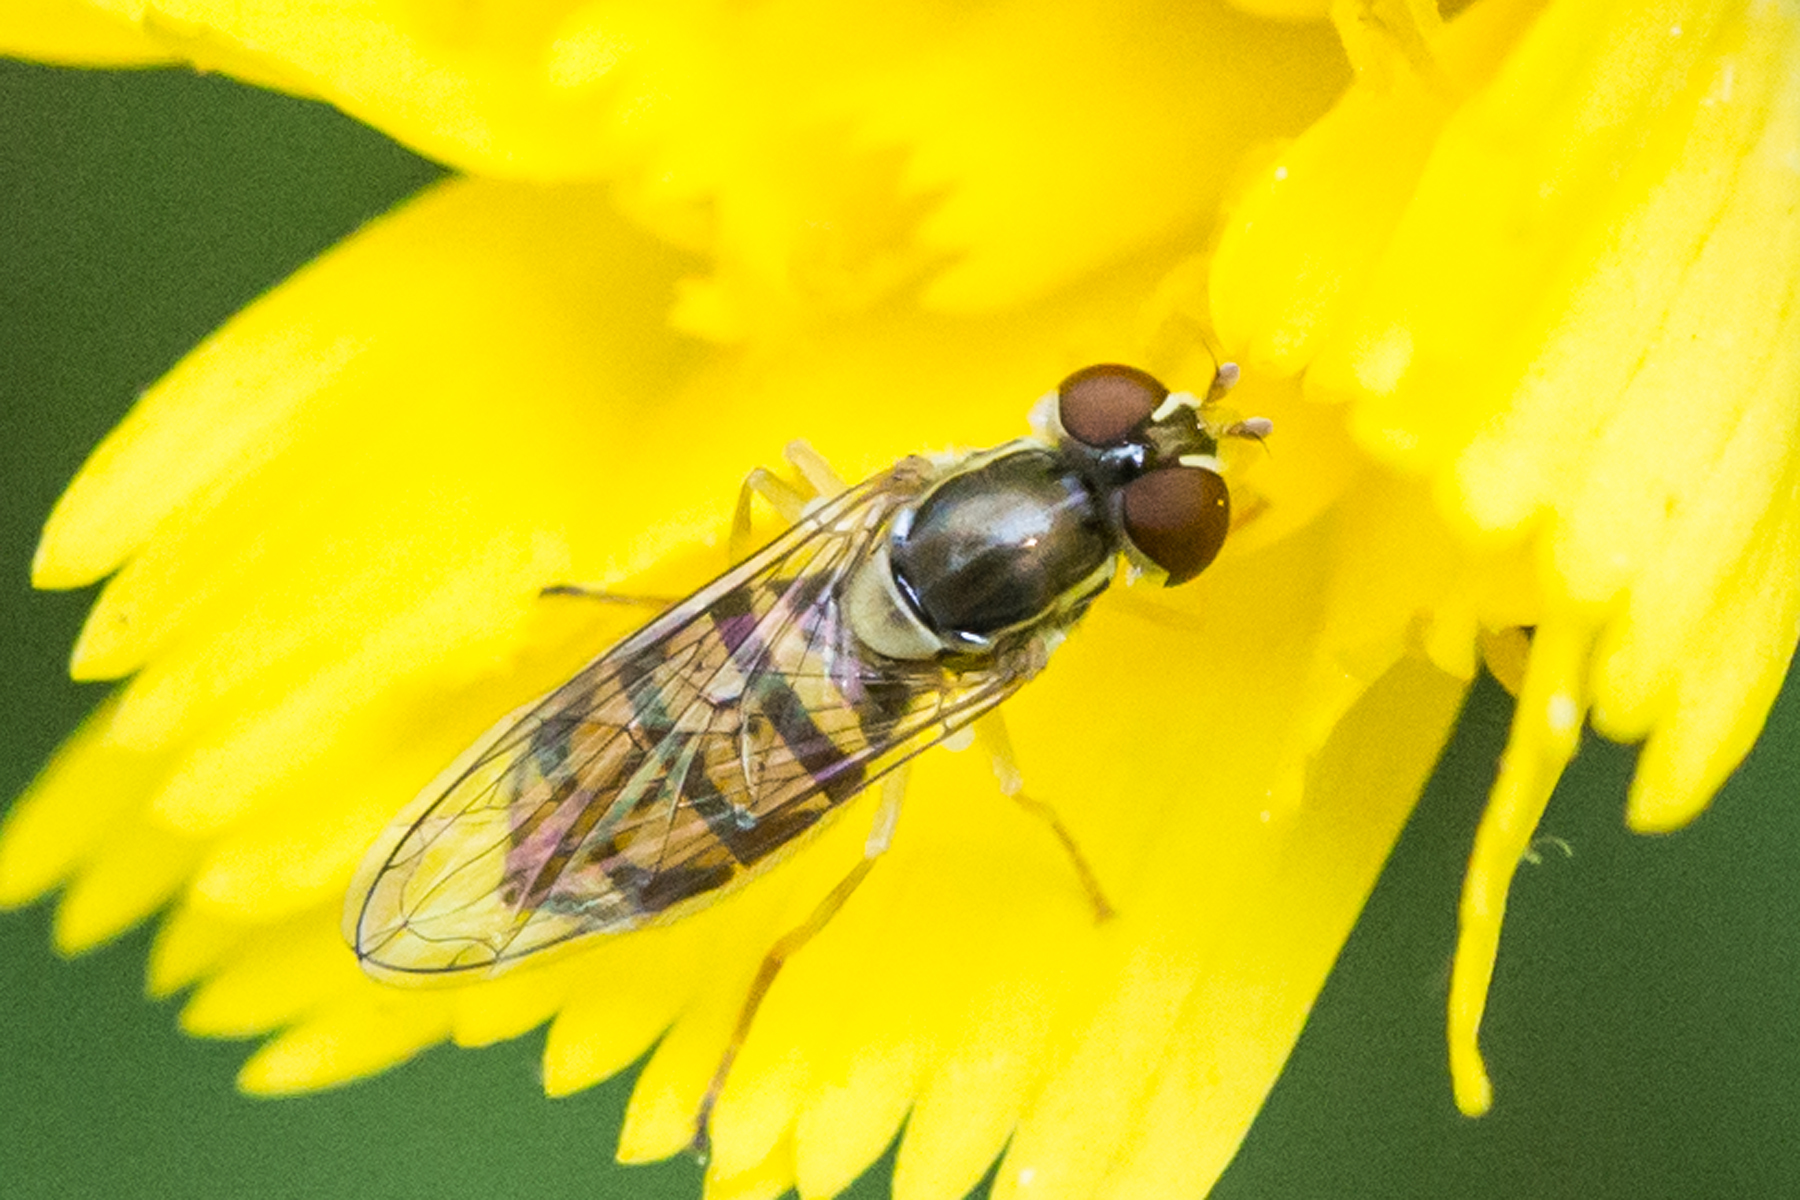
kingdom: Animalia
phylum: Arthropoda
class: Insecta
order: Diptera
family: Syrphidae
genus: Toxomerus
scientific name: Toxomerus marginatus
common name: Syrphid fly
